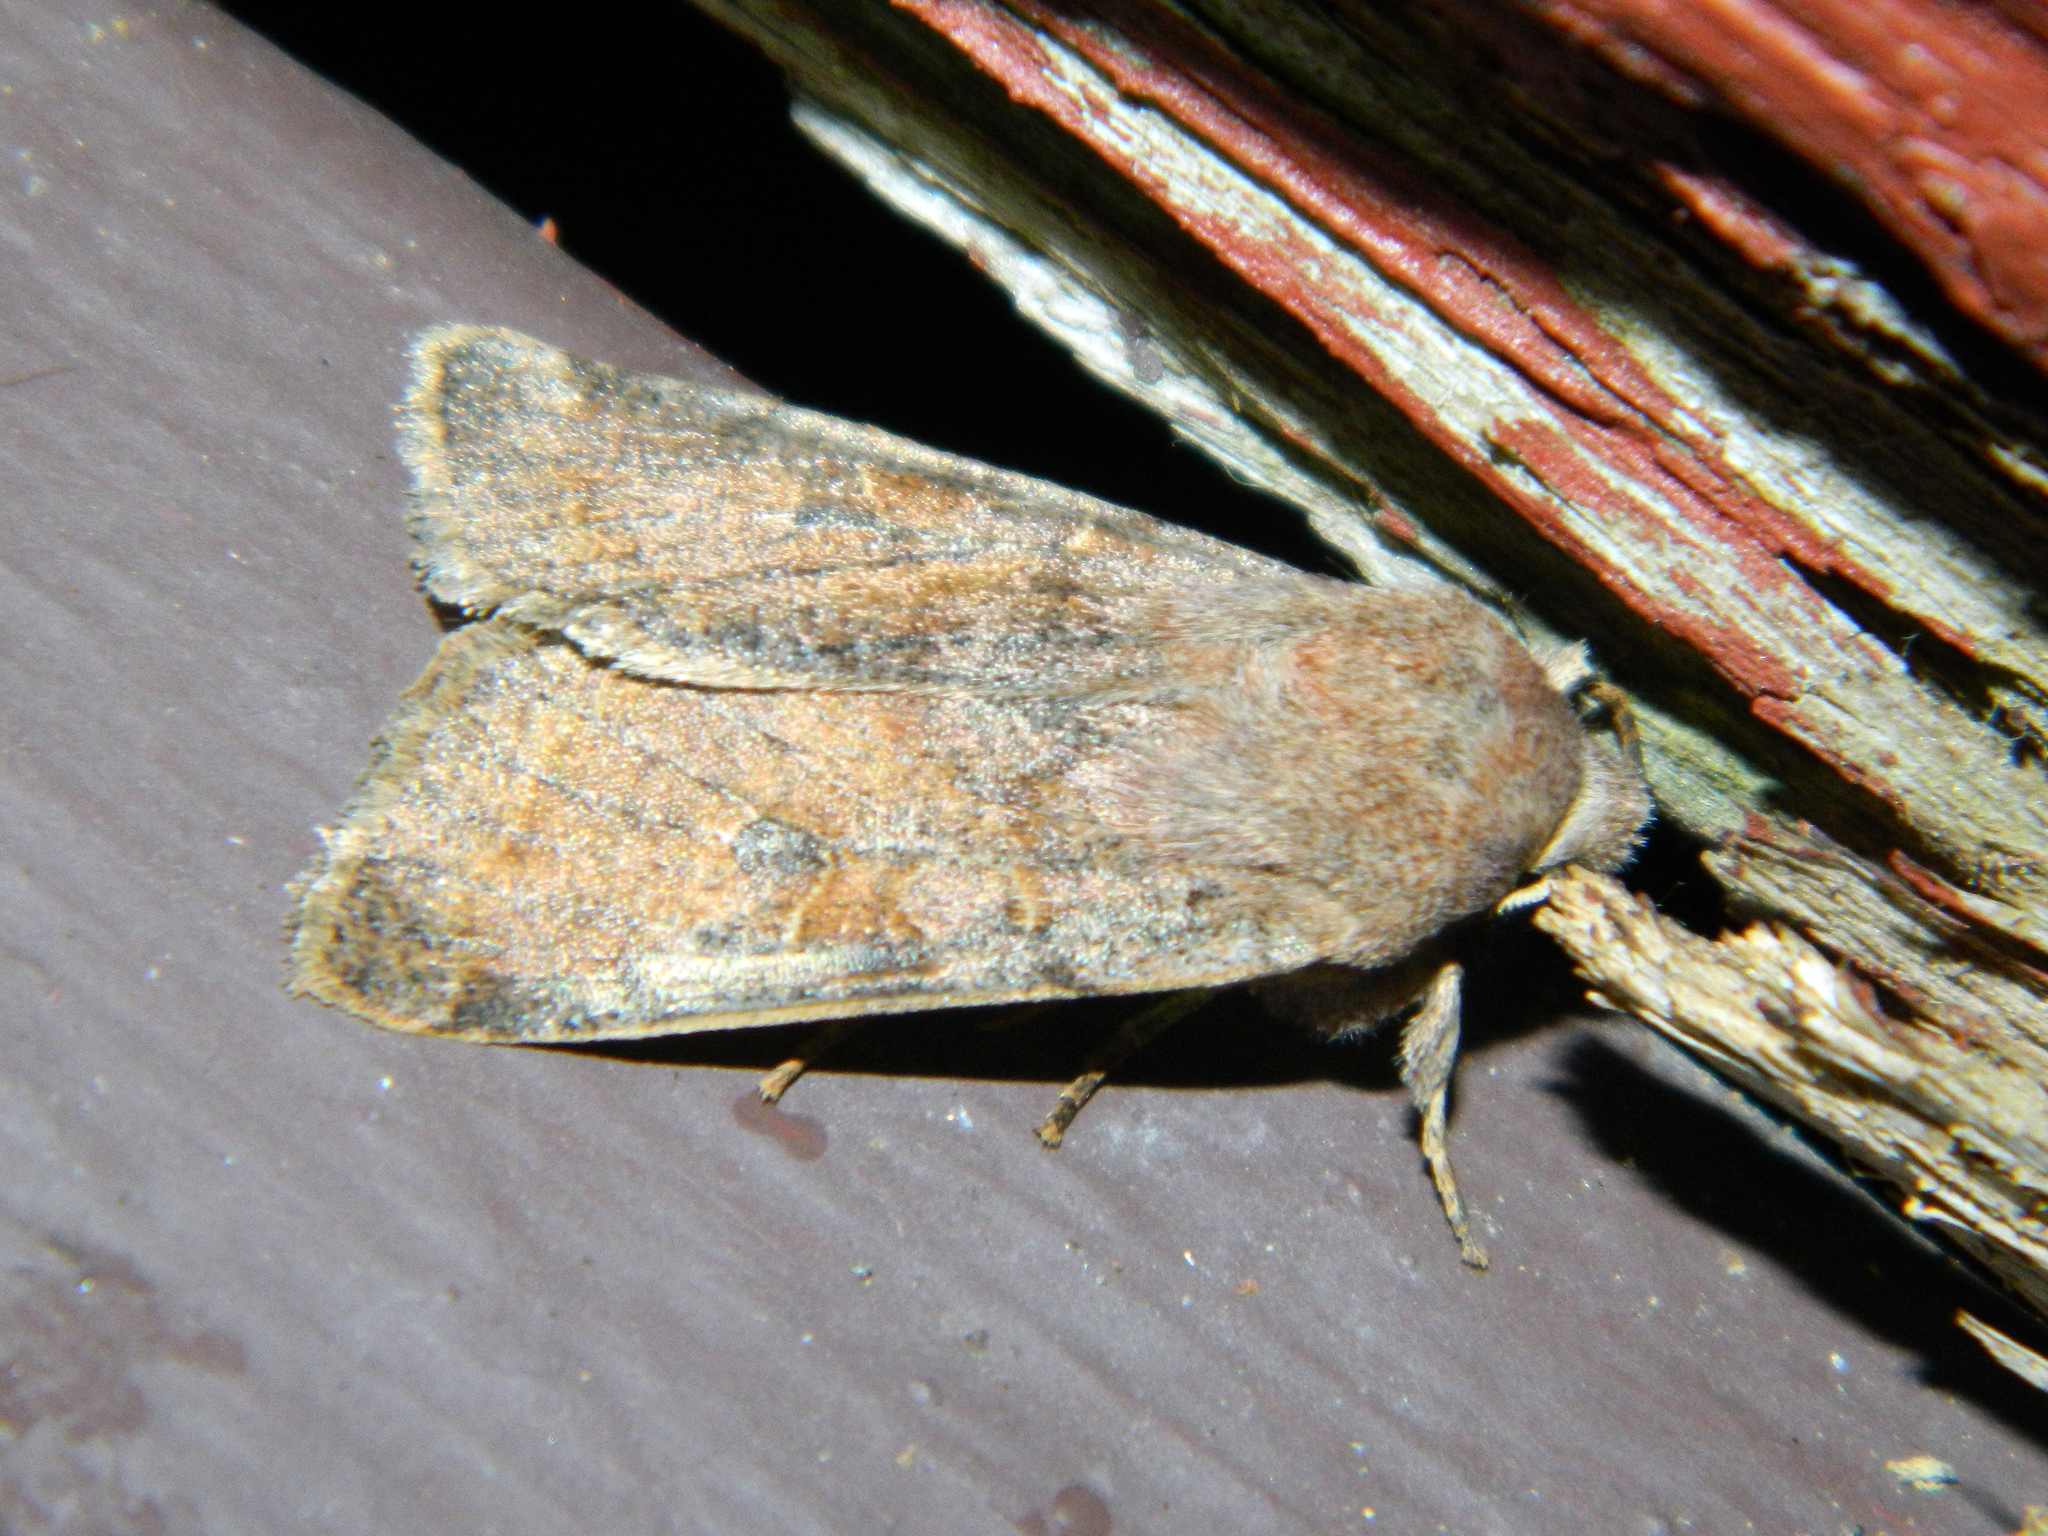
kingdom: Animalia
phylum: Arthropoda
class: Insecta
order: Lepidoptera
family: Noctuidae
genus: Orthosia
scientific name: Orthosia hibisci
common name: Green fruitworm
